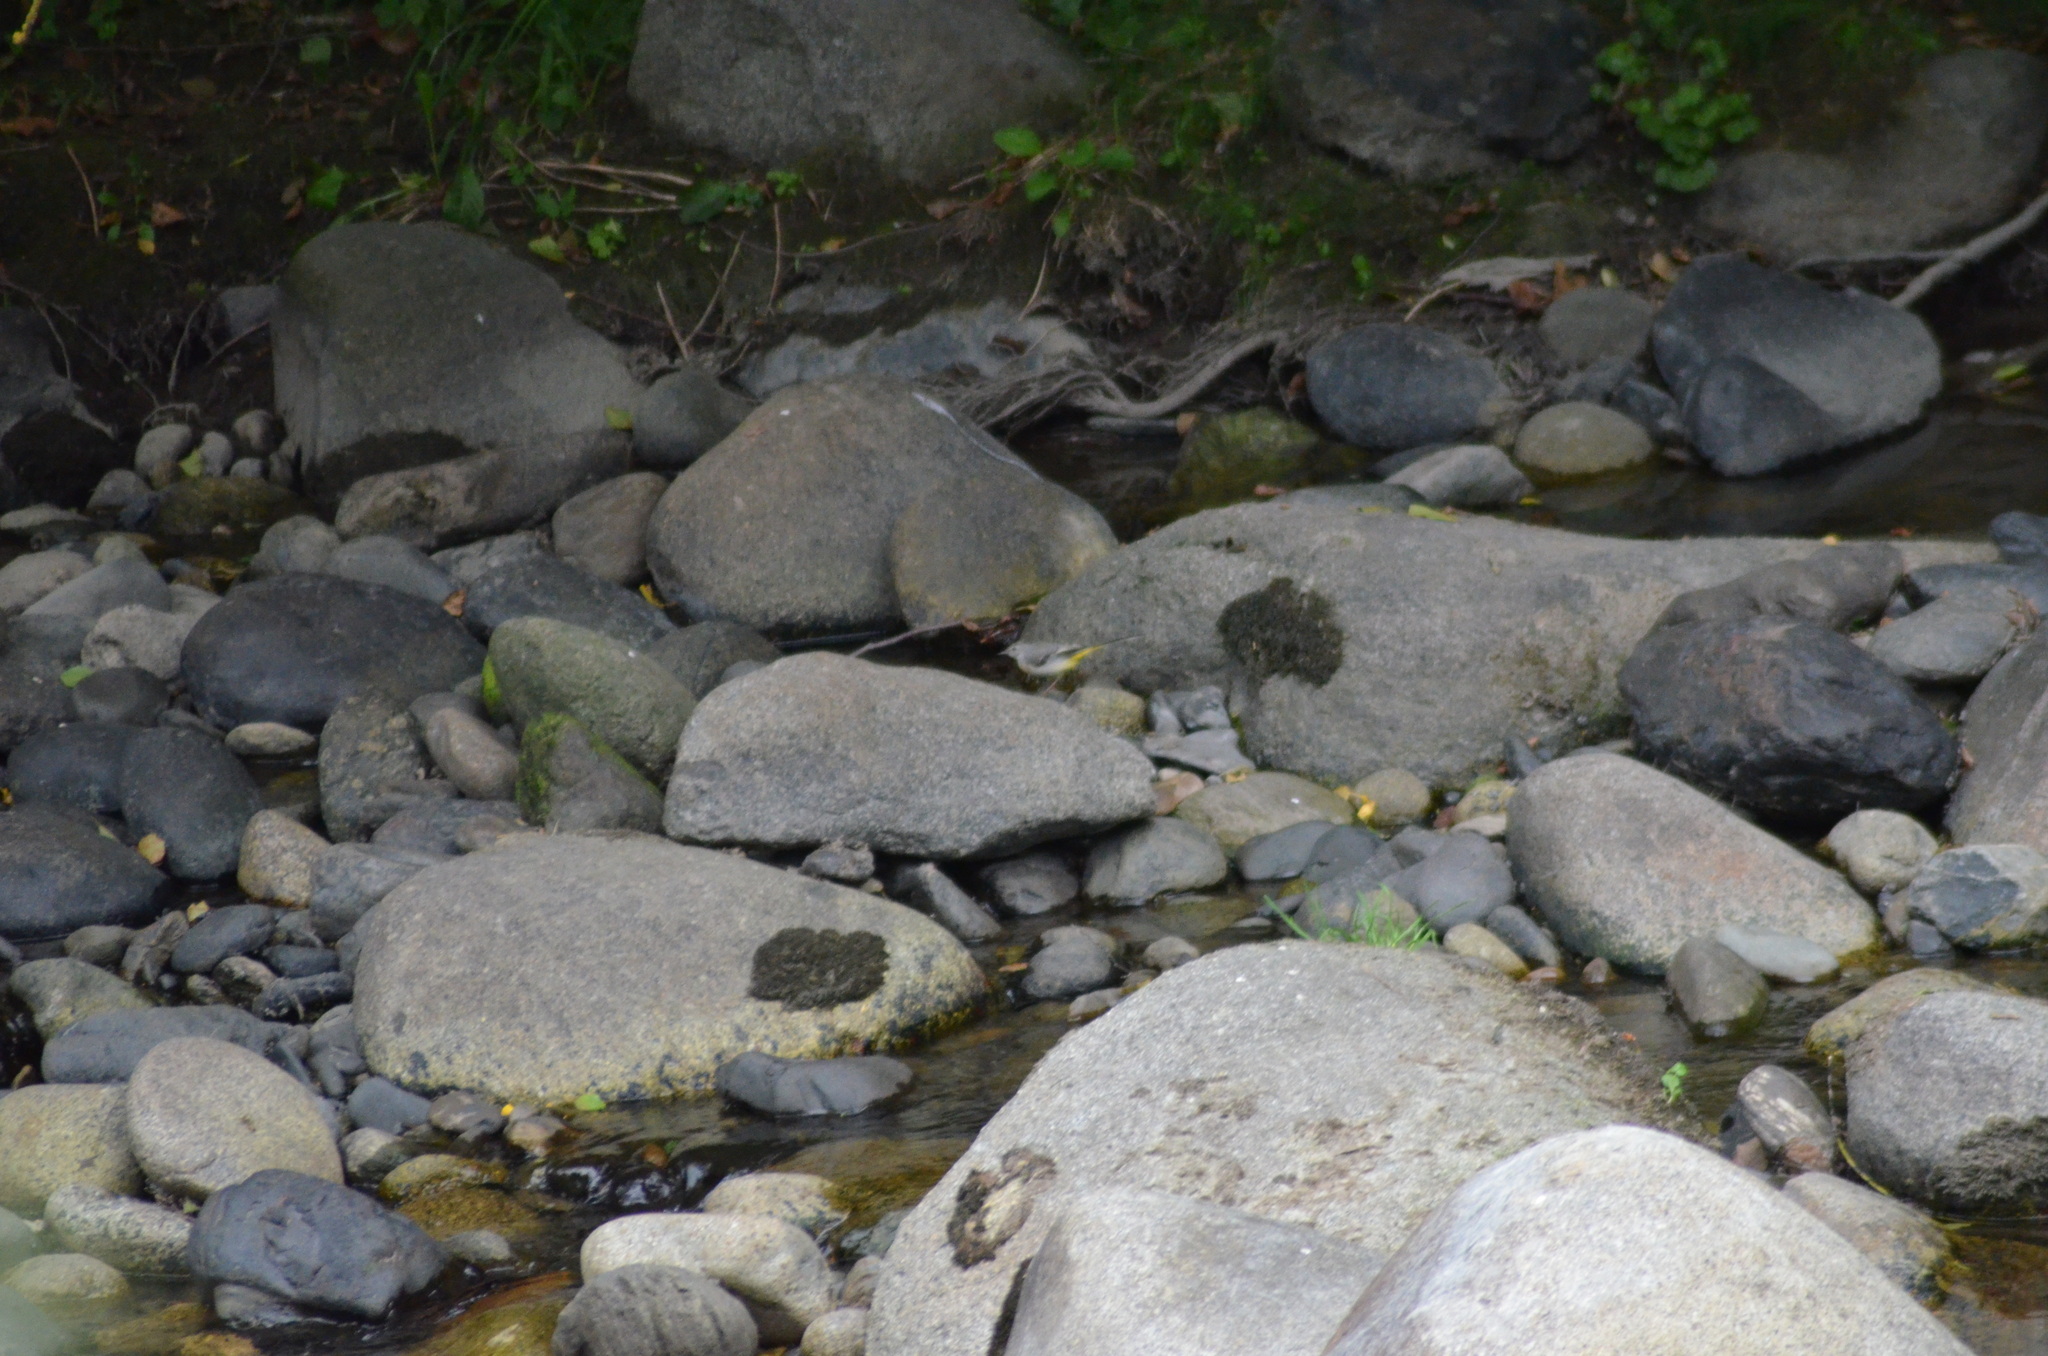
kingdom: Animalia
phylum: Chordata
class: Aves
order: Passeriformes
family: Motacillidae
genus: Motacilla
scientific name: Motacilla cinerea
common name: Grey wagtail
